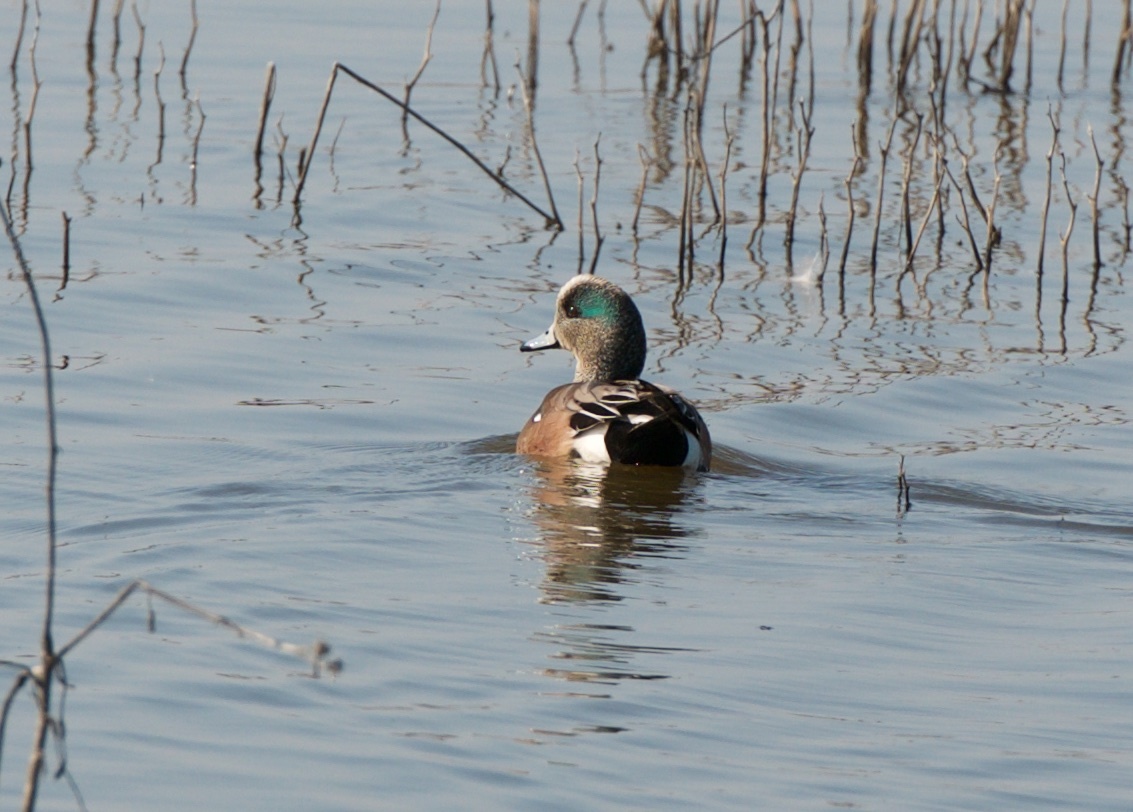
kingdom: Animalia
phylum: Chordata
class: Aves
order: Anseriformes
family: Anatidae
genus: Mareca
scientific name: Mareca americana
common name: American wigeon
